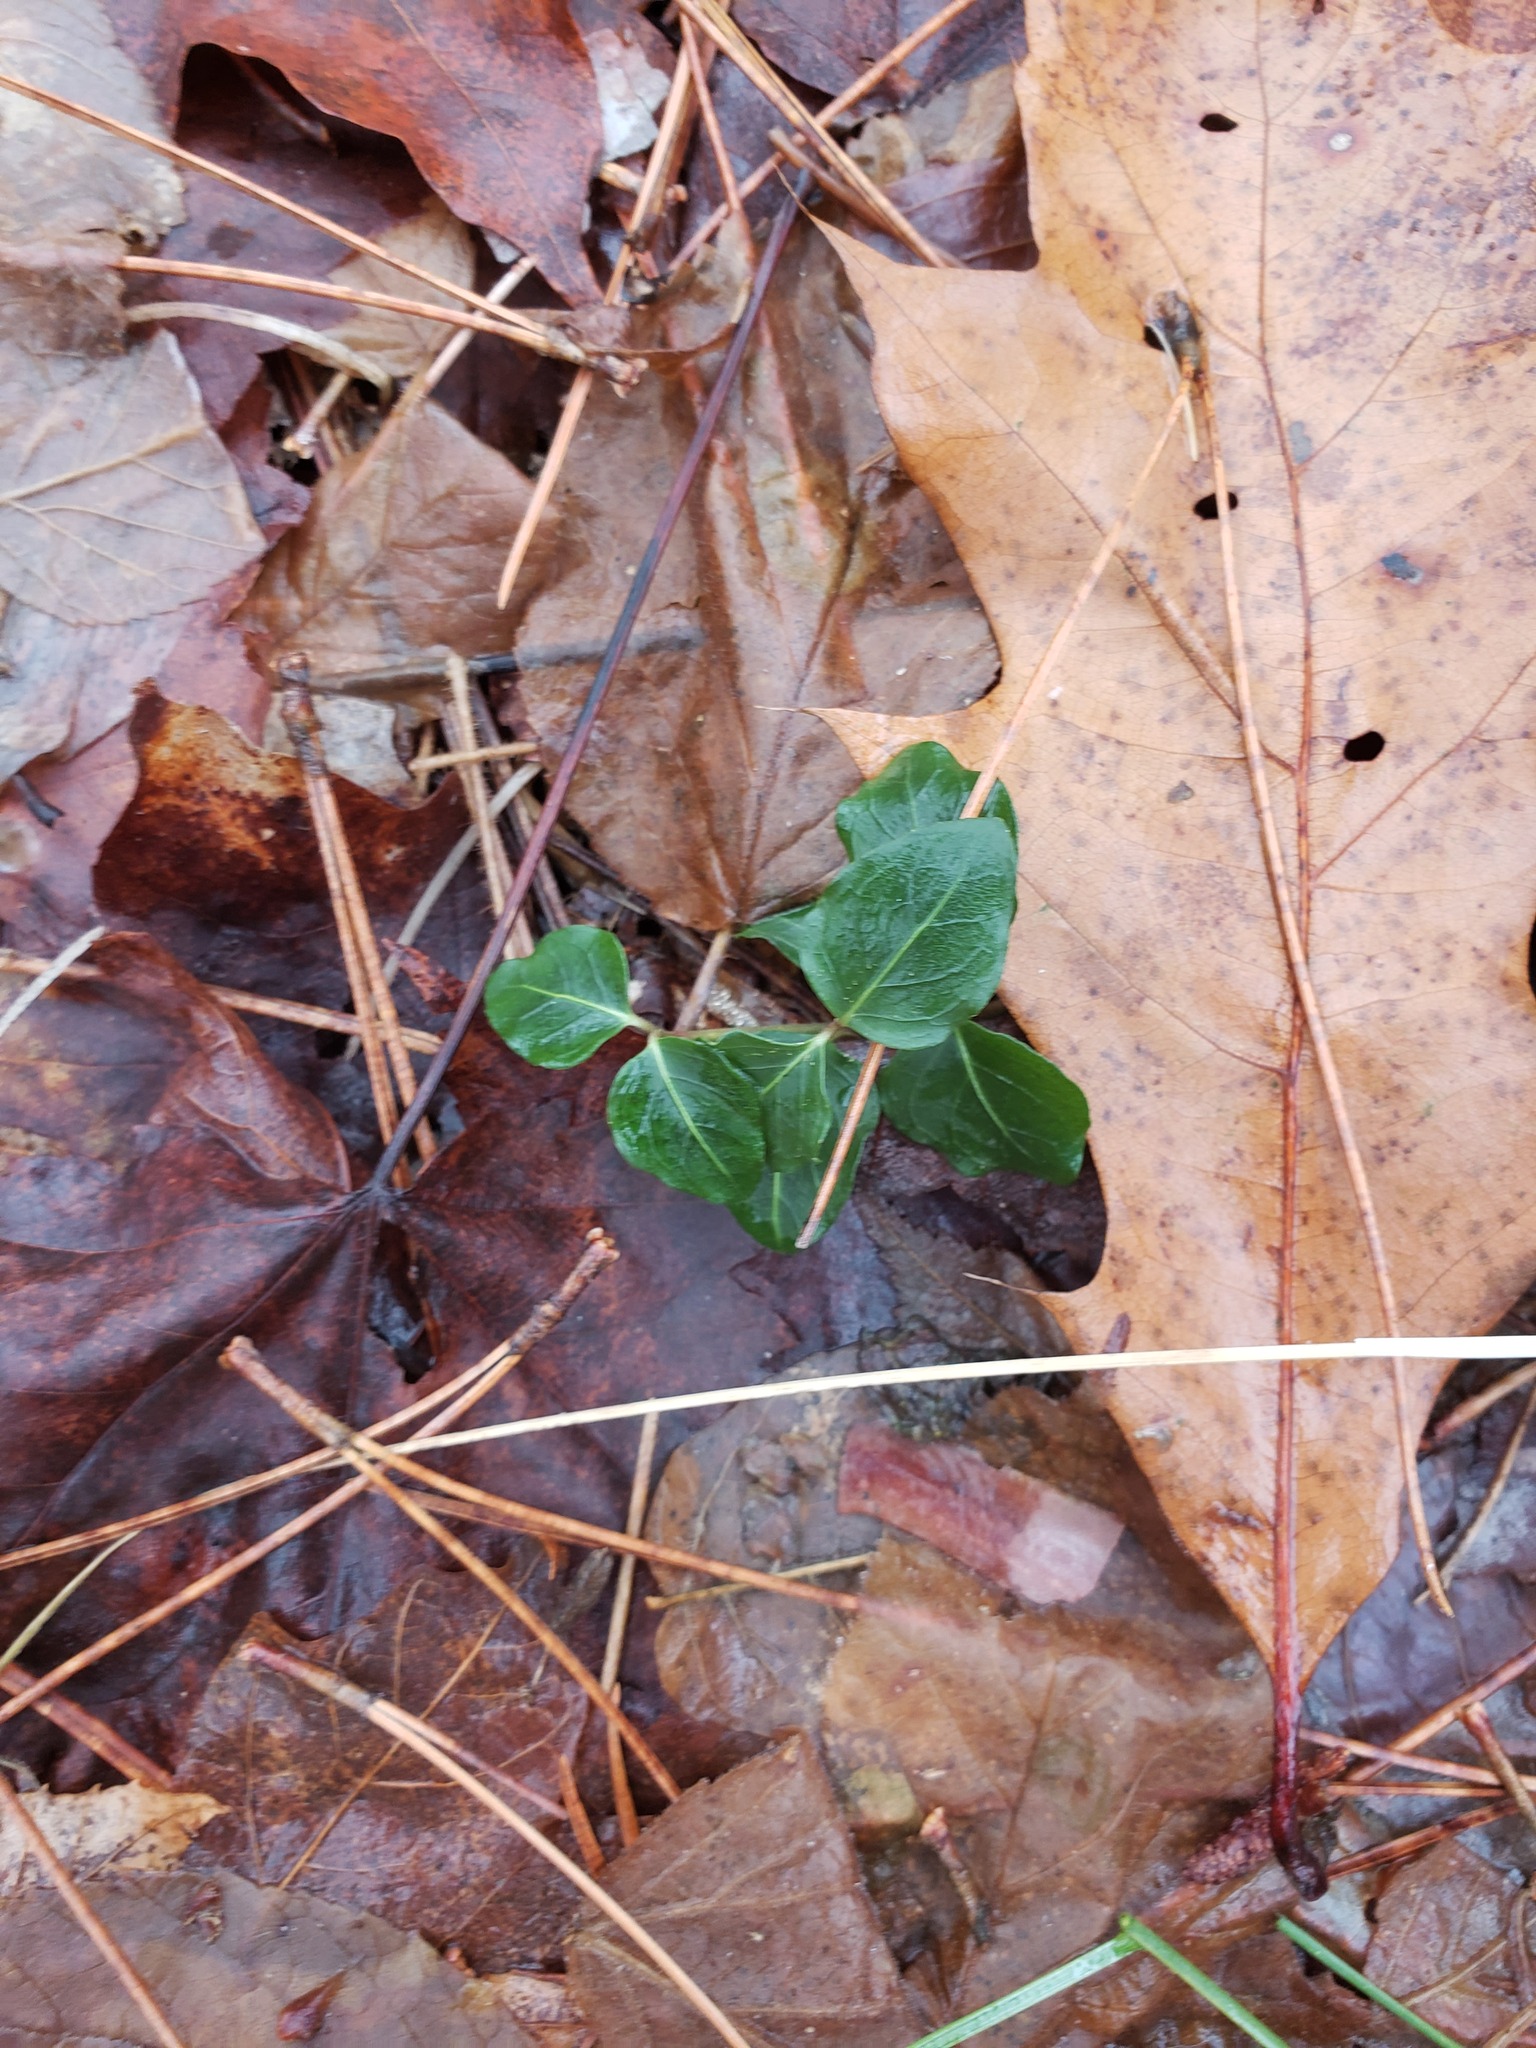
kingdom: Plantae
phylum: Tracheophyta
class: Magnoliopsida
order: Gentianales
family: Rubiaceae
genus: Mitchella
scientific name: Mitchella repens
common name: Partridge-berry
